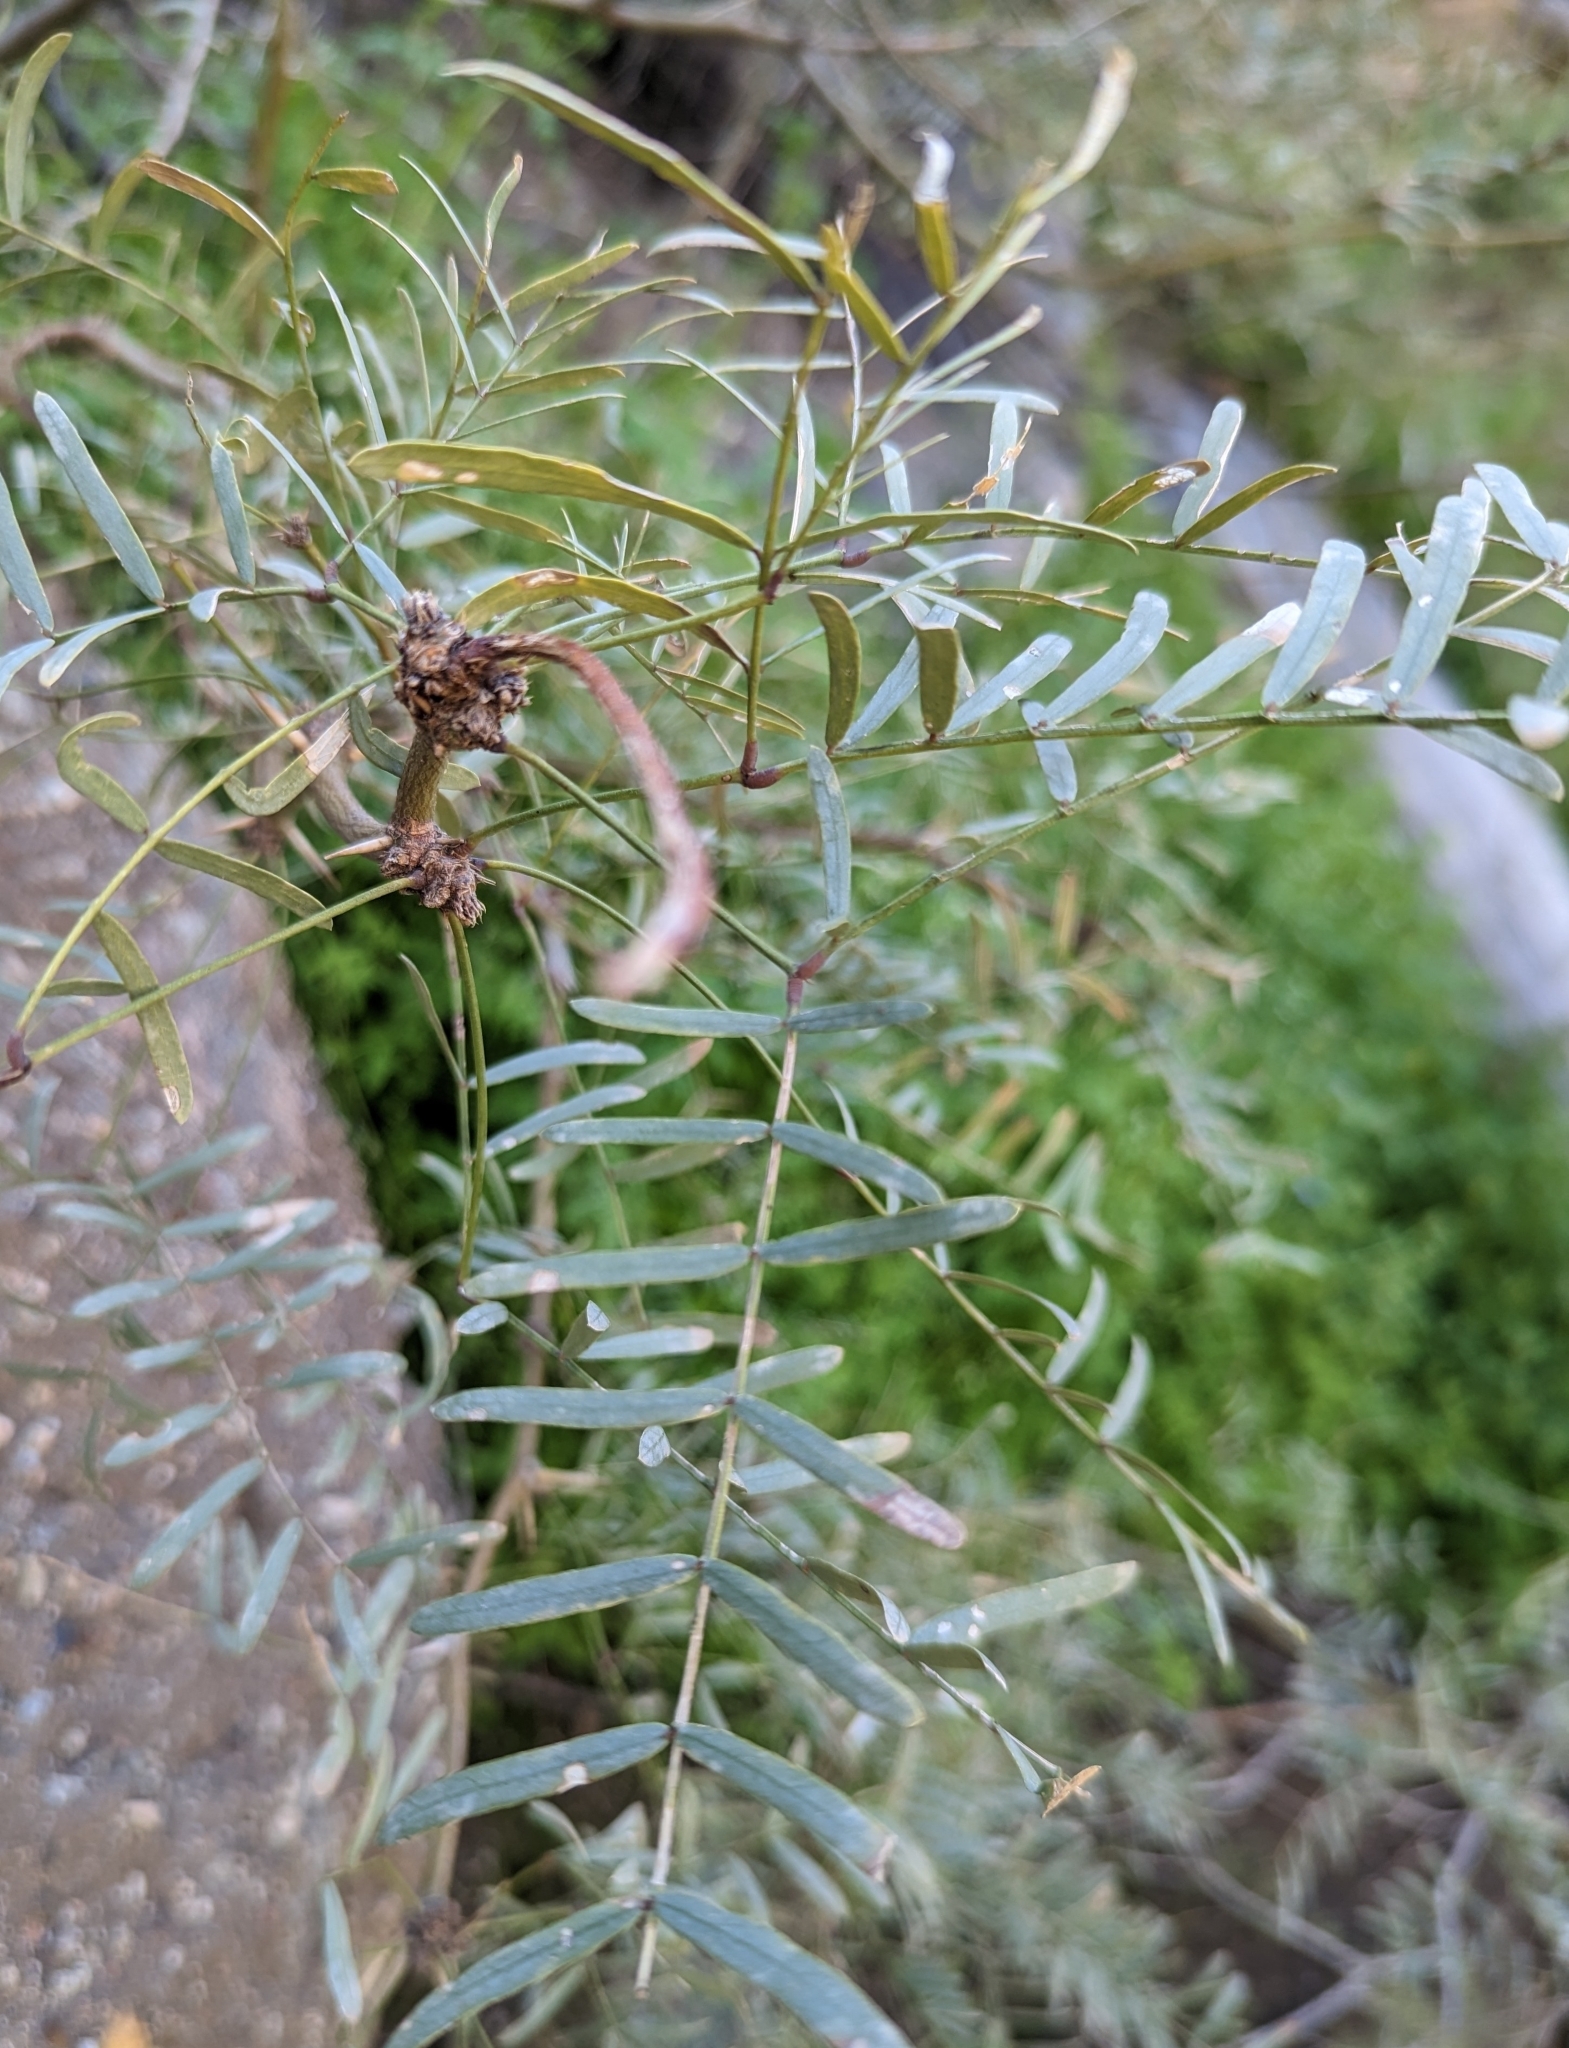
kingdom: Plantae
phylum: Tracheophyta
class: Magnoliopsida
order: Fabales
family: Fabaceae
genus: Prosopis
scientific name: Prosopis pubescens
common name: Screw-bean
